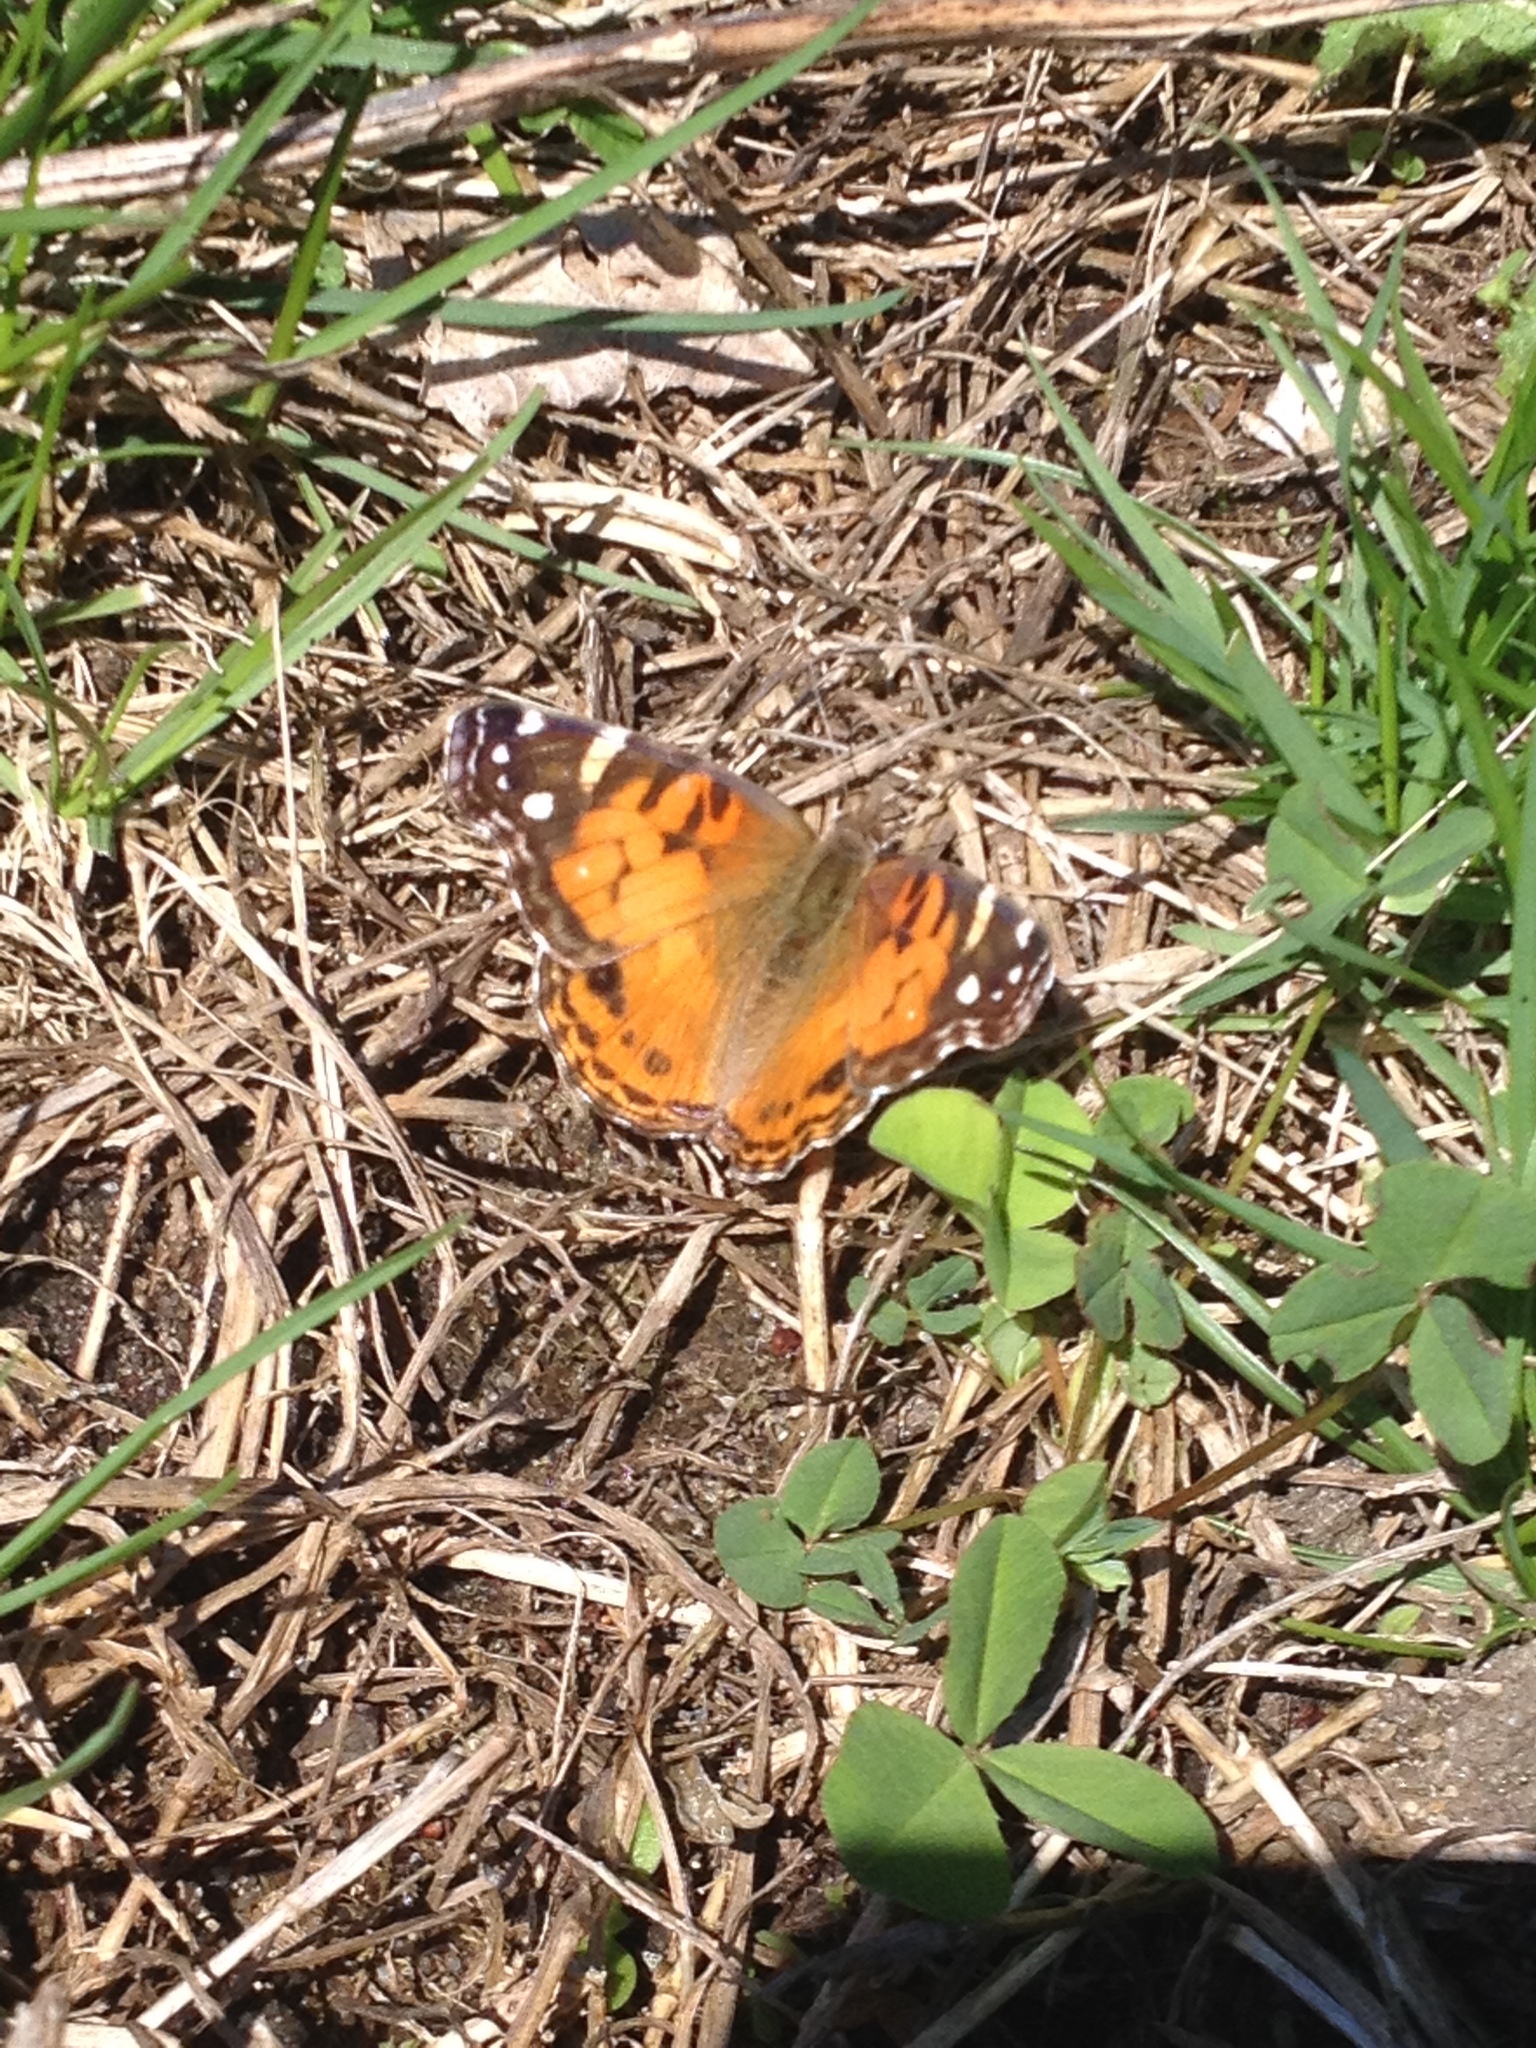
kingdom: Animalia
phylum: Arthropoda
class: Insecta
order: Lepidoptera
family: Nymphalidae
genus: Vanessa
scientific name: Vanessa virginiensis
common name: American lady
